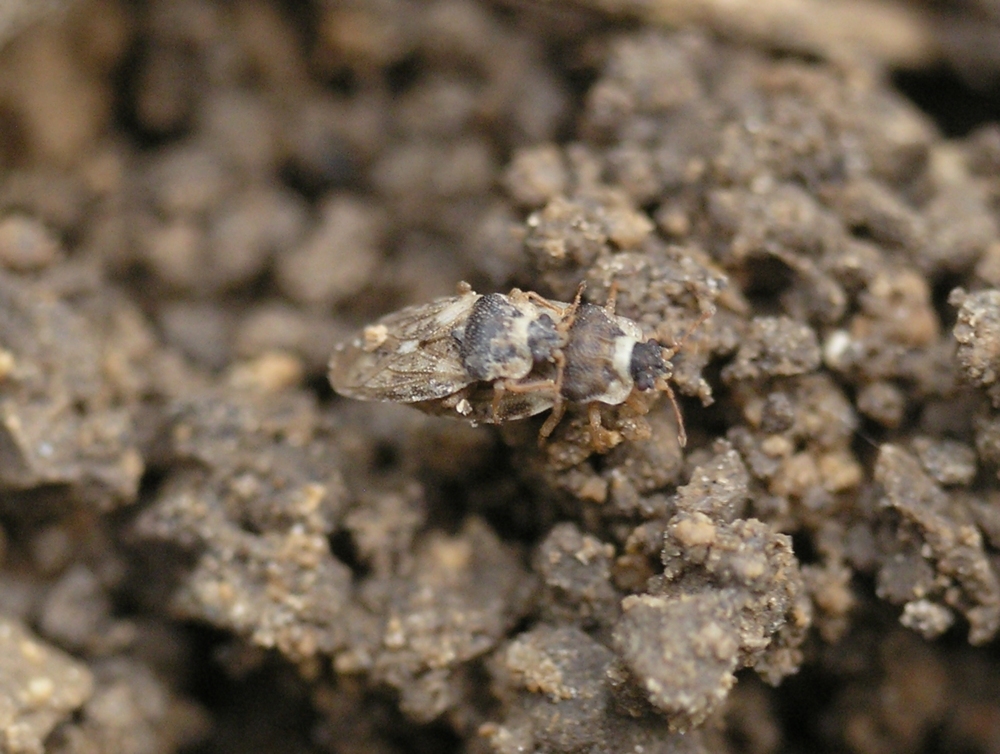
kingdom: Animalia
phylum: Arthropoda
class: Insecta
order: Hemiptera
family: Piesmatidae
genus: Piesma
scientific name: Piesma maculata
